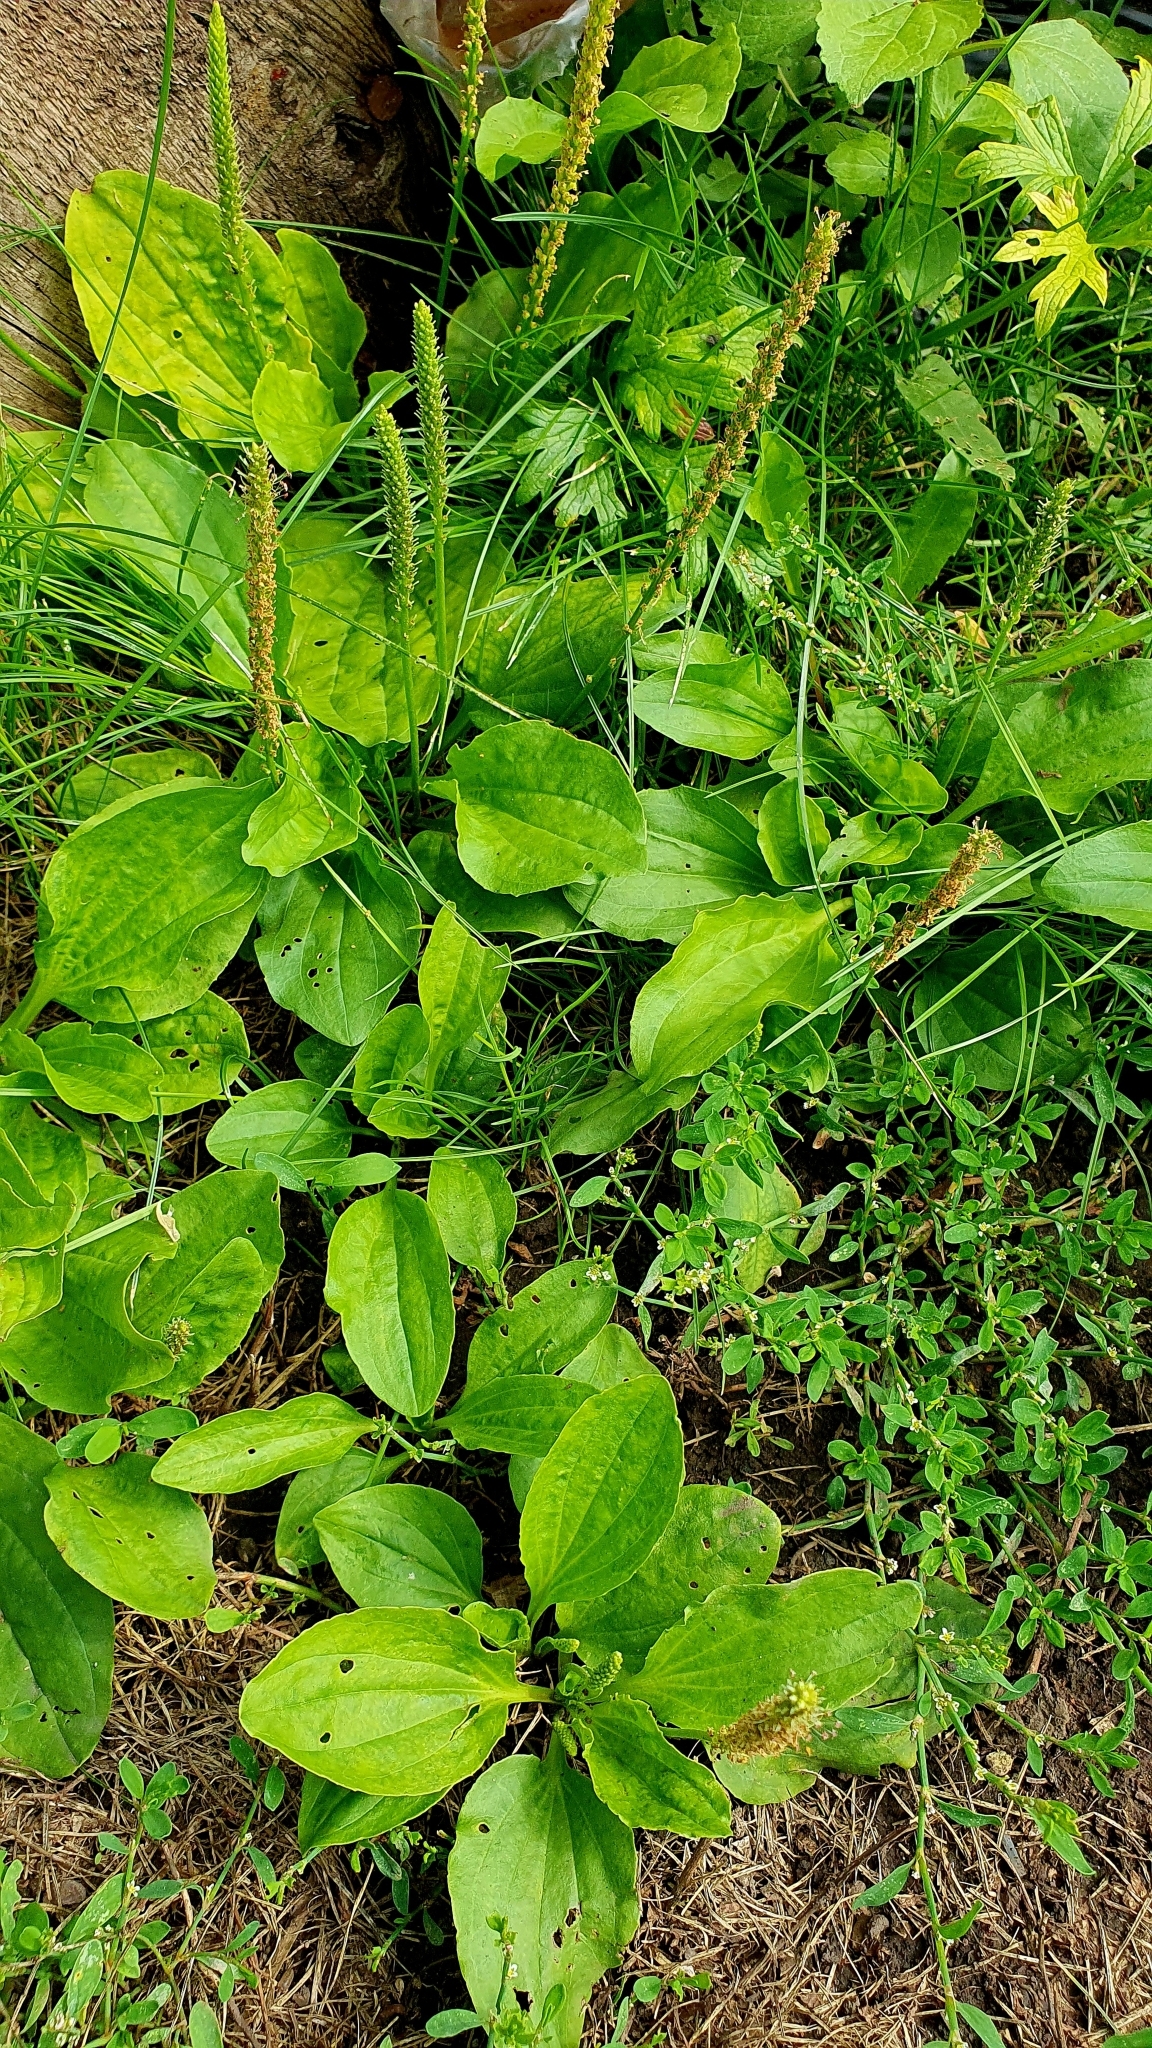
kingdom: Plantae
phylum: Tracheophyta
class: Magnoliopsida
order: Lamiales
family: Plantaginaceae
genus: Plantago
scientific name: Plantago major
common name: Common plantain
